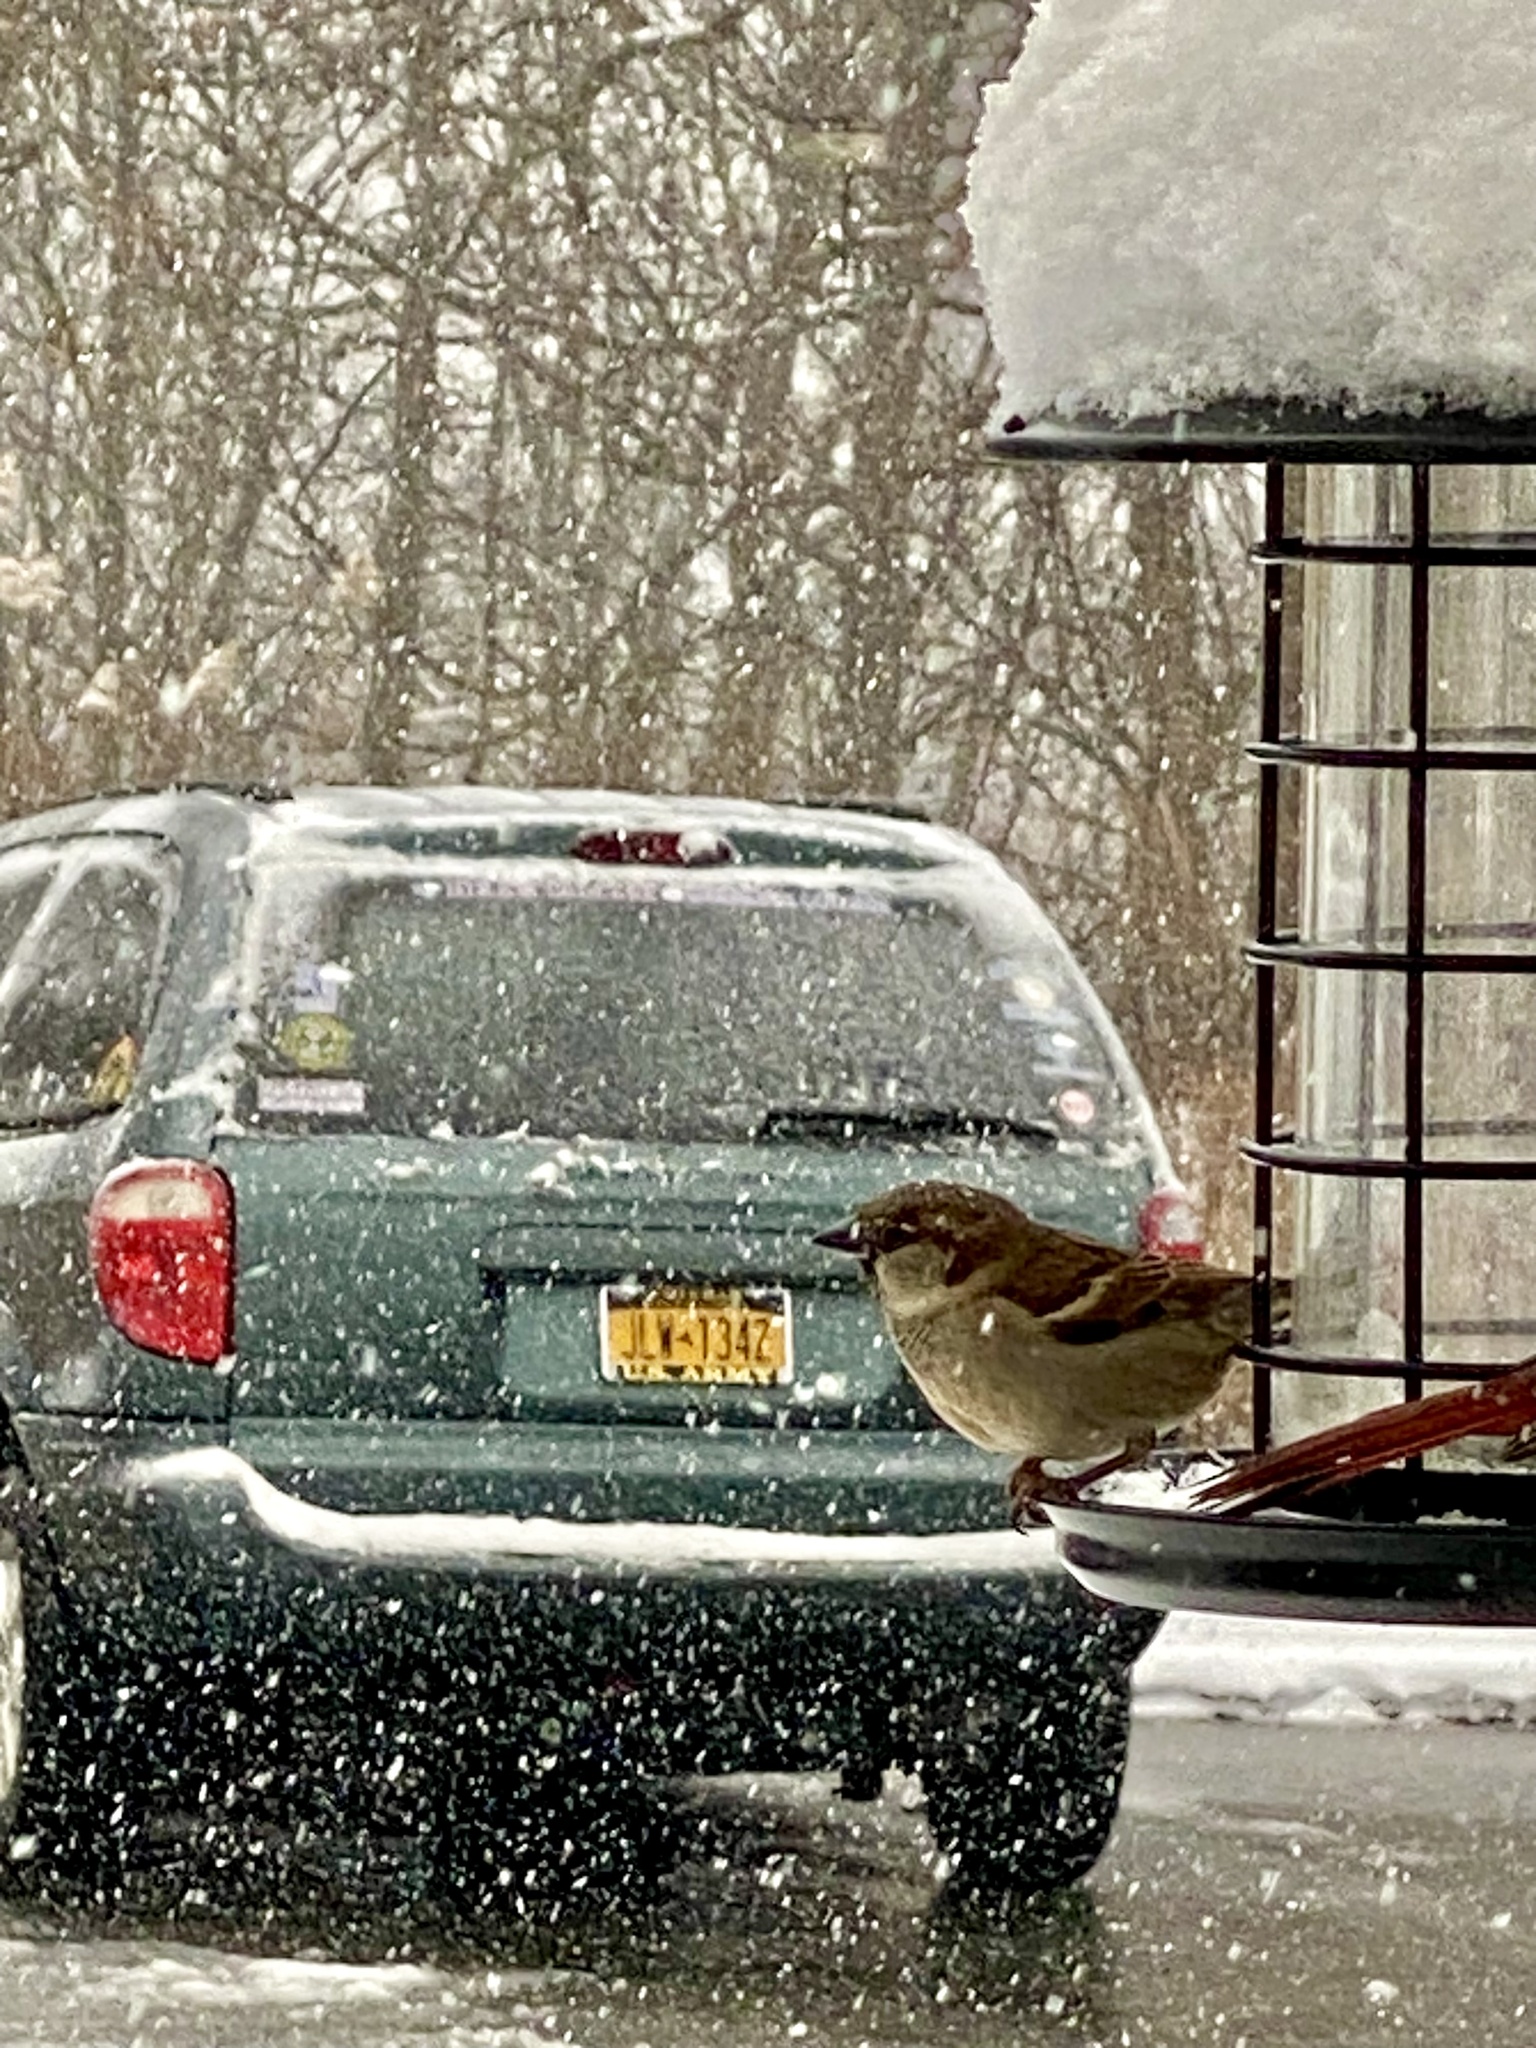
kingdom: Animalia
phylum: Chordata
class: Aves
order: Passeriformes
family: Passeridae
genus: Passer
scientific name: Passer domesticus
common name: House sparrow
